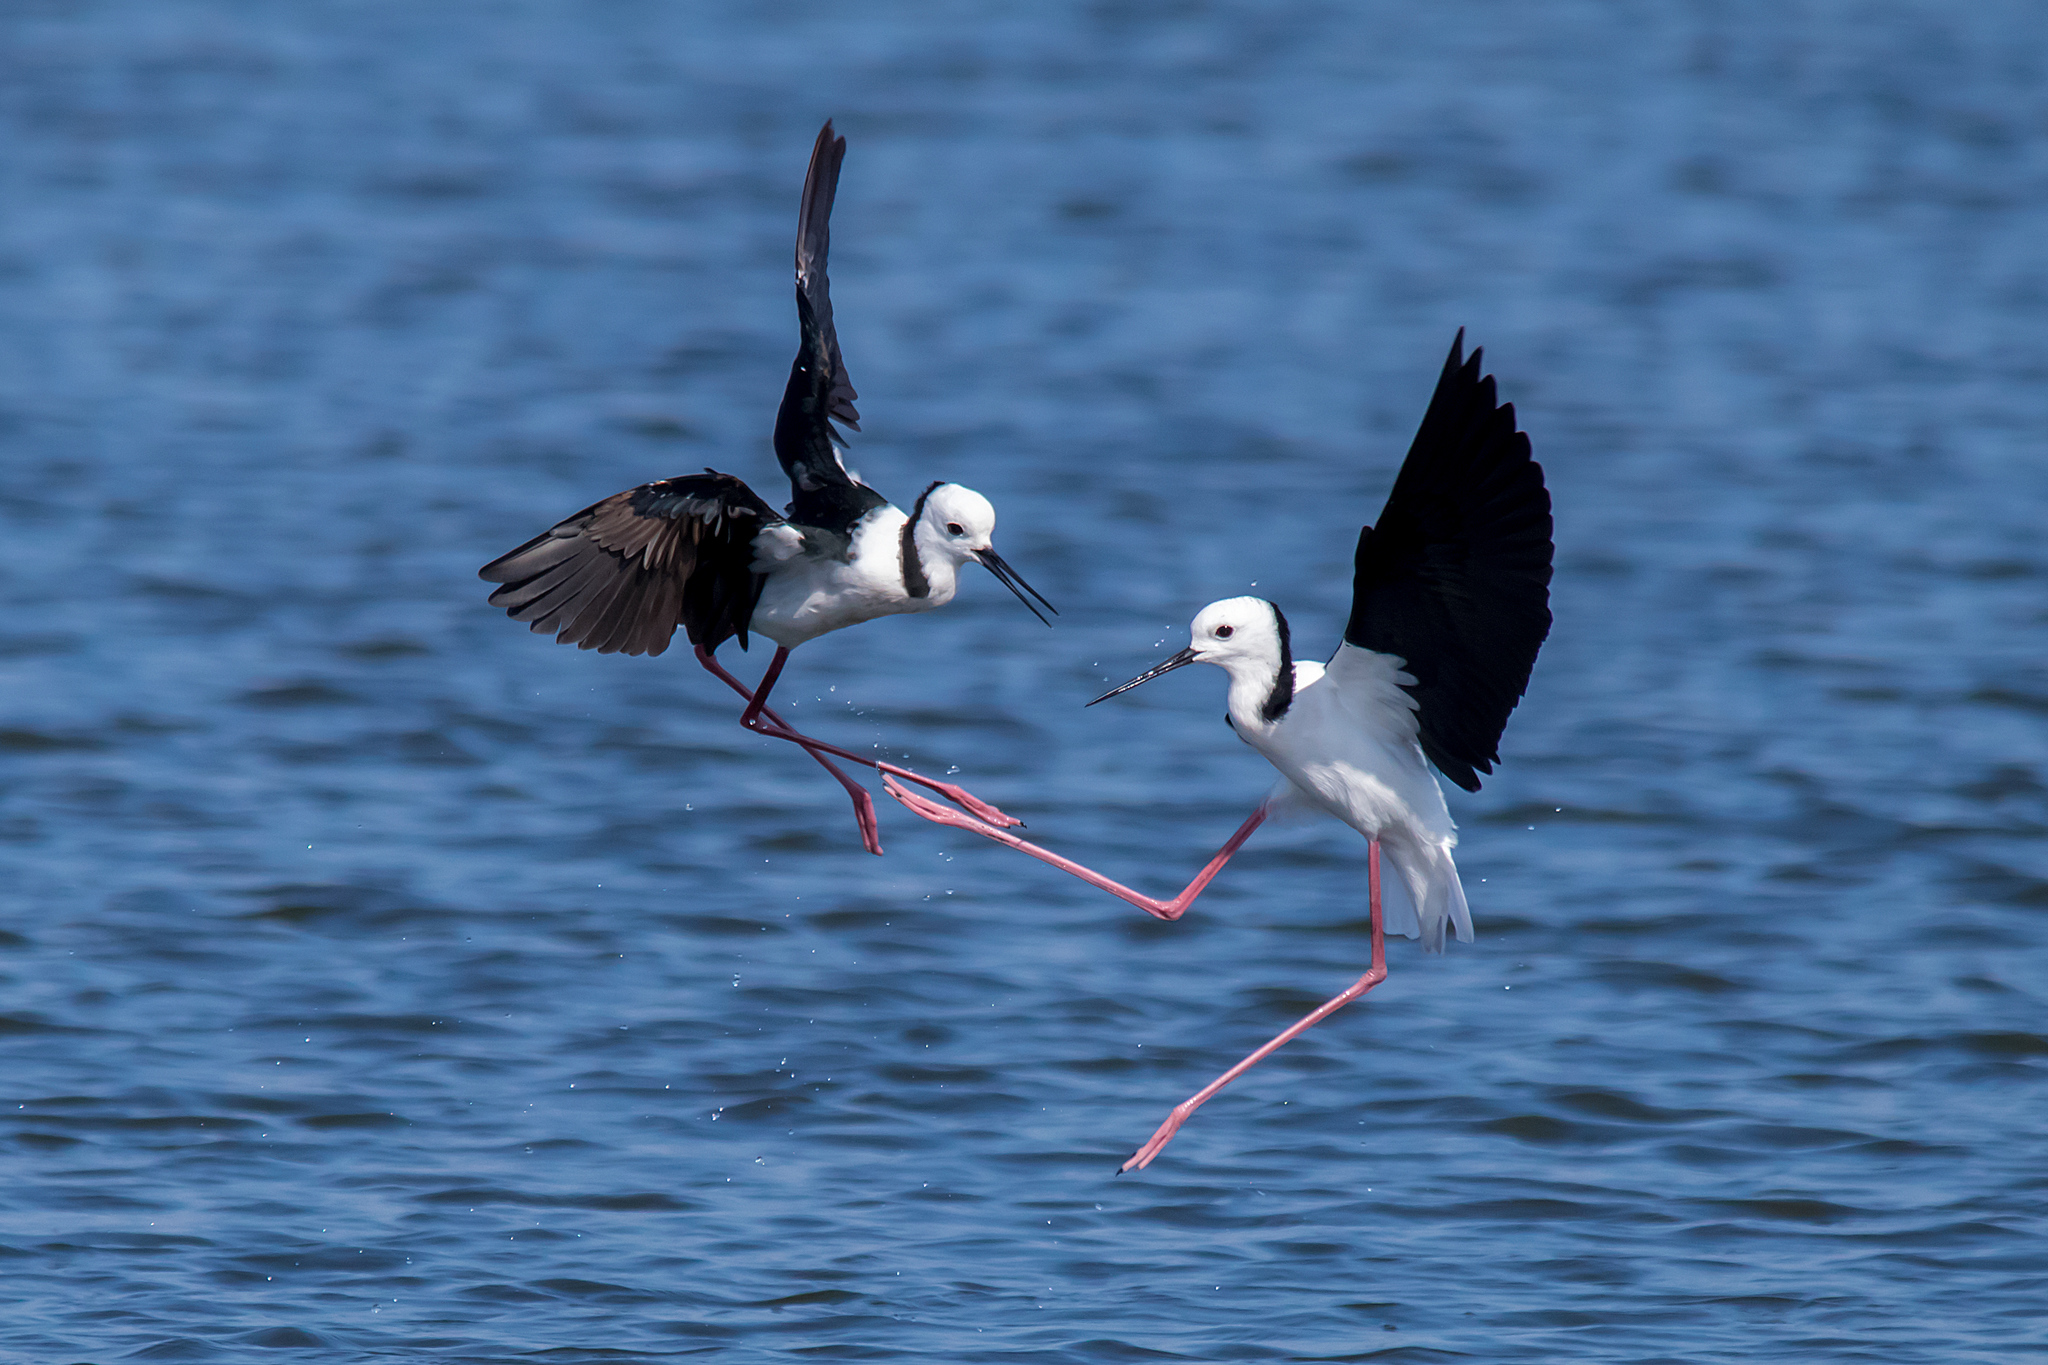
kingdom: Animalia
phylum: Chordata
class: Aves
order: Charadriiformes
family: Recurvirostridae
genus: Himantopus
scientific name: Himantopus leucocephalus
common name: White-headed stilt
